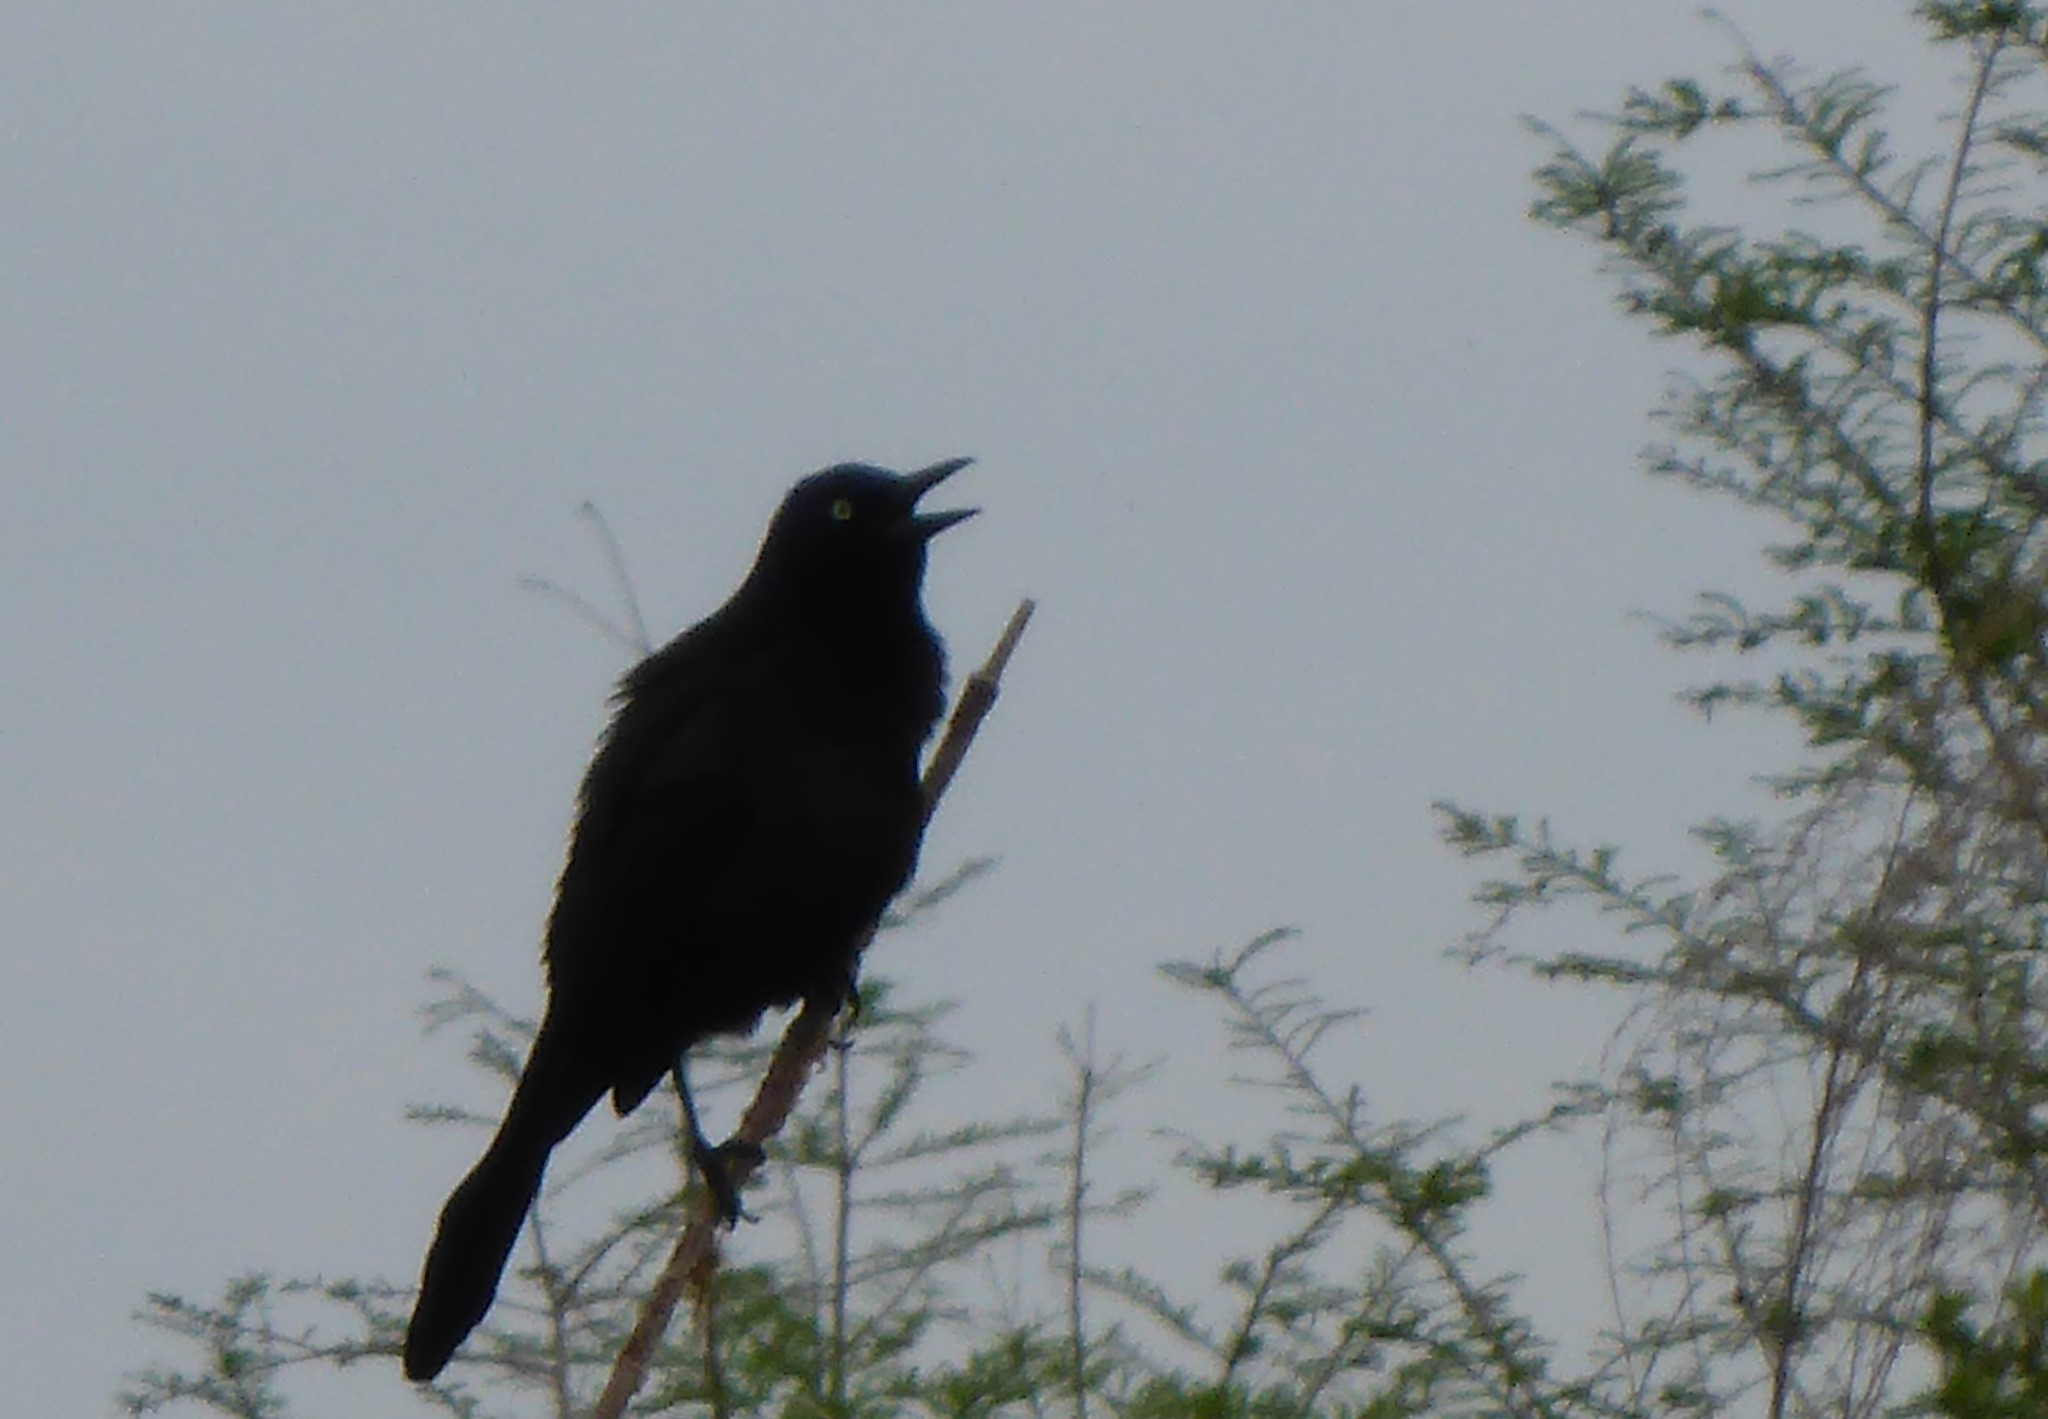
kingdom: Animalia
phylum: Chordata
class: Aves
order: Passeriformes
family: Icteridae
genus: Quiscalus
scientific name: Quiscalus quiscula
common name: Common grackle
